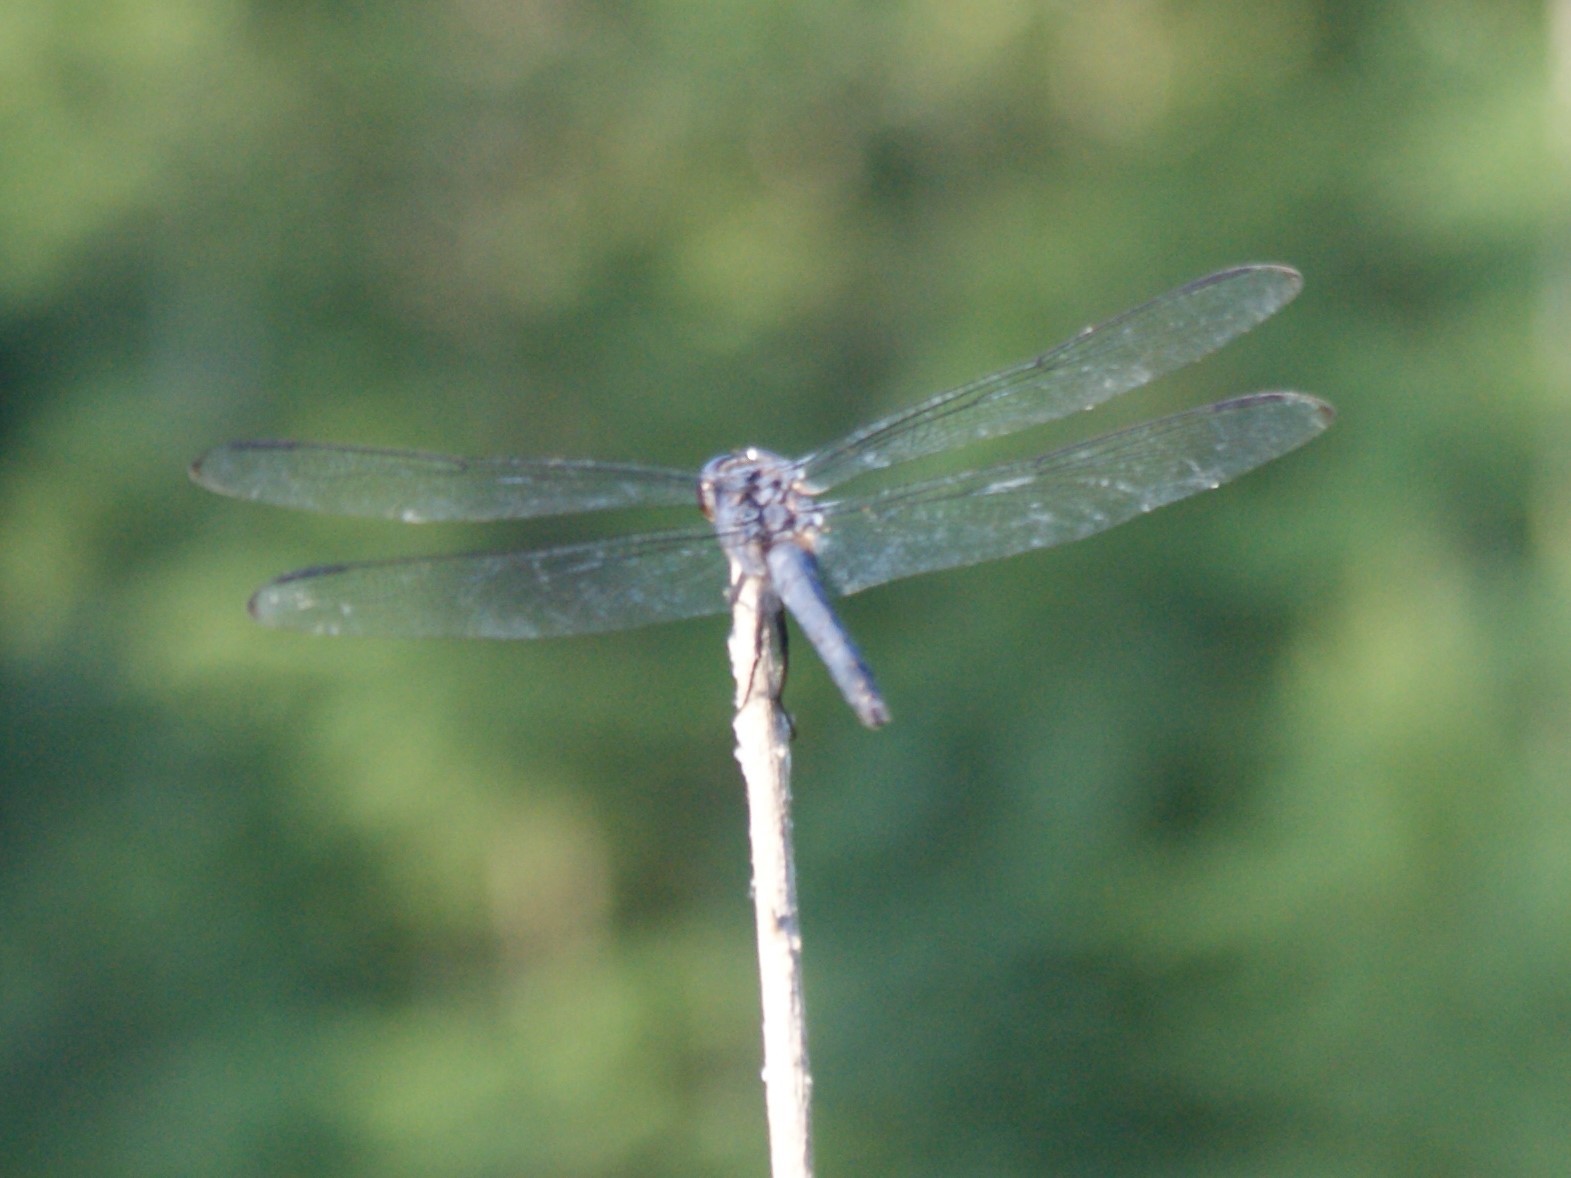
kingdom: Animalia
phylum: Arthropoda
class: Insecta
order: Odonata
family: Libellulidae
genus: Libellula
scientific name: Libellula incesta
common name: Slaty skimmer
